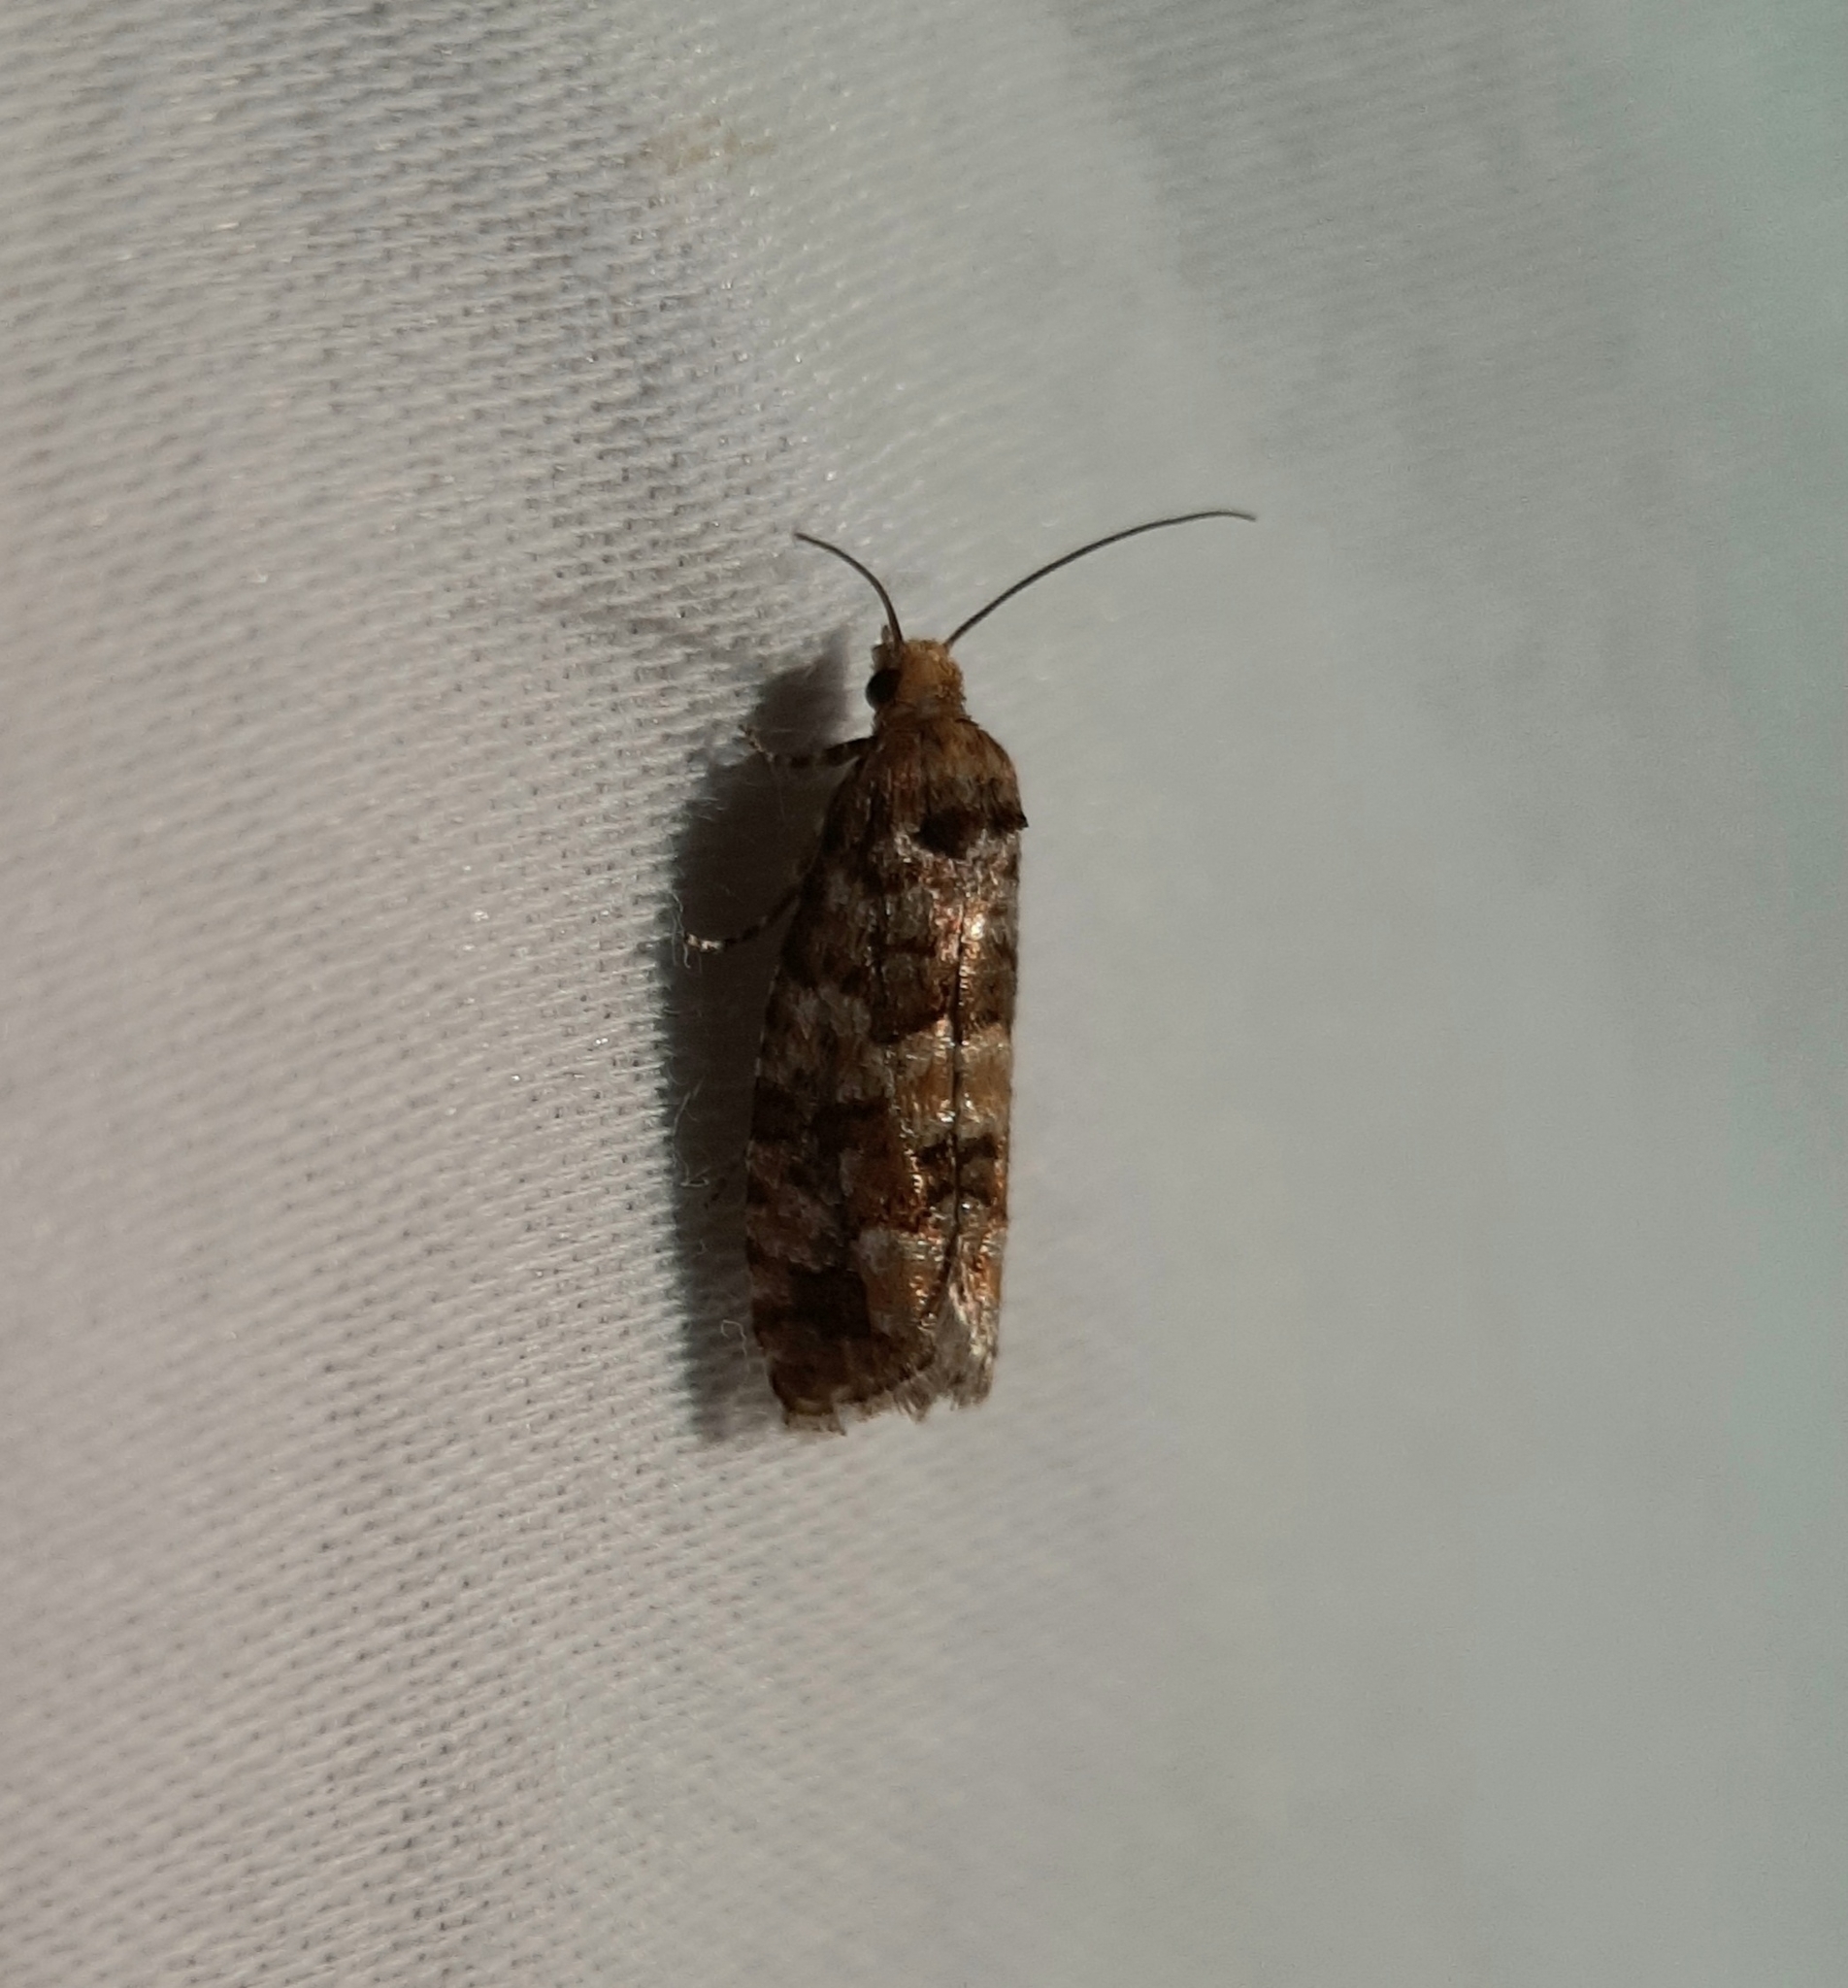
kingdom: Animalia
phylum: Arthropoda
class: Insecta
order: Lepidoptera
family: Tortricidae
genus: Eucopina
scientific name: Eucopina tocullionana
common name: White pinecone borer moth
